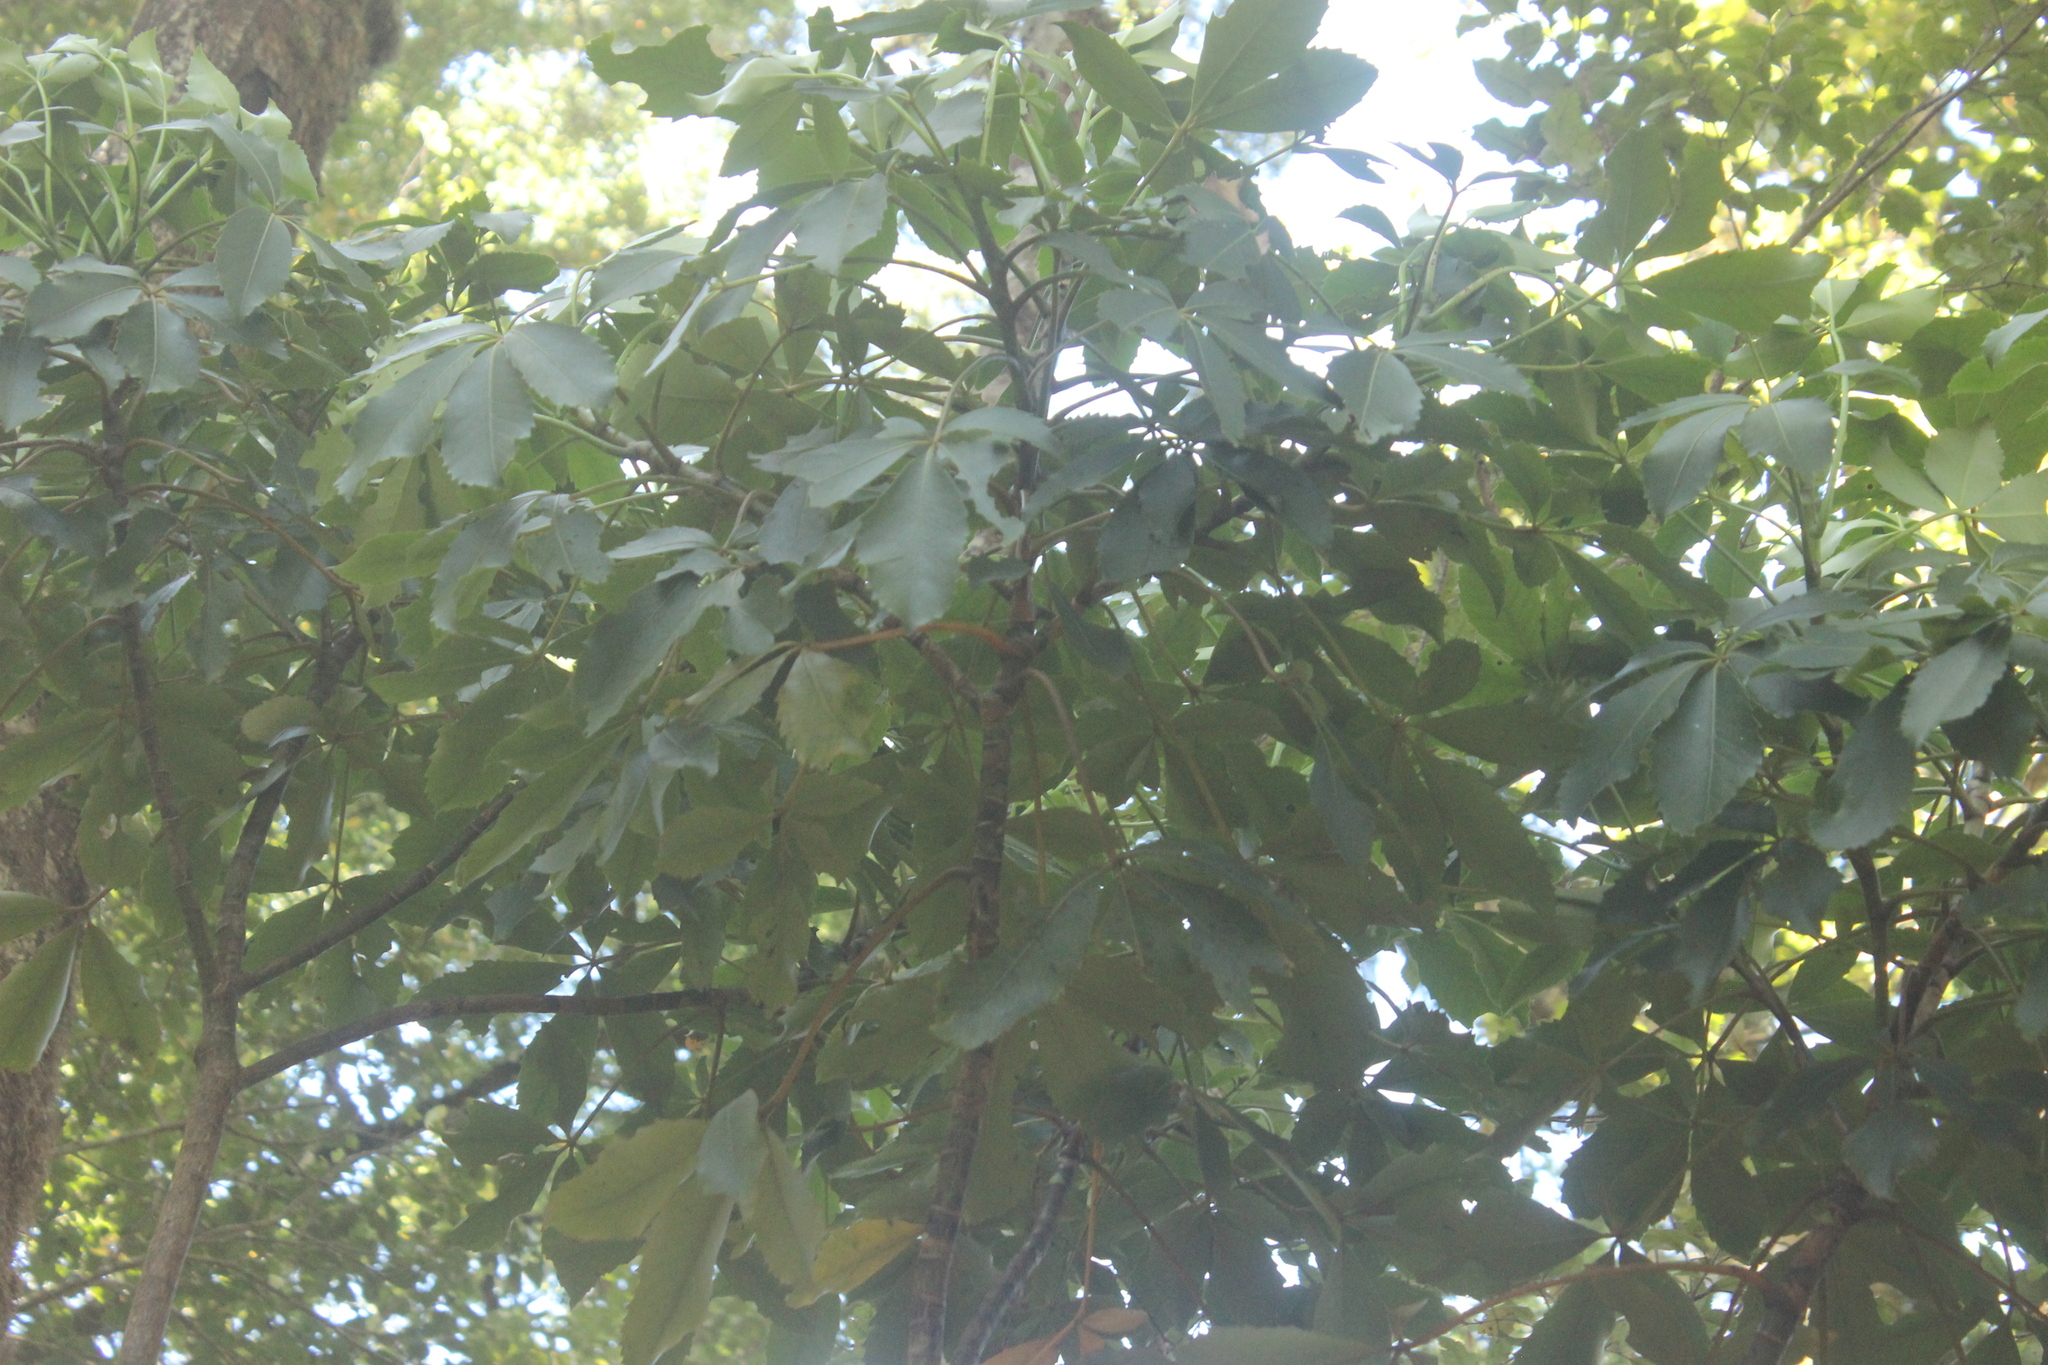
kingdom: Plantae
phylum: Tracheophyta
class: Magnoliopsida
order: Apiales
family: Araliaceae
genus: Neopanax
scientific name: Neopanax arboreus
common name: Five-fingers
